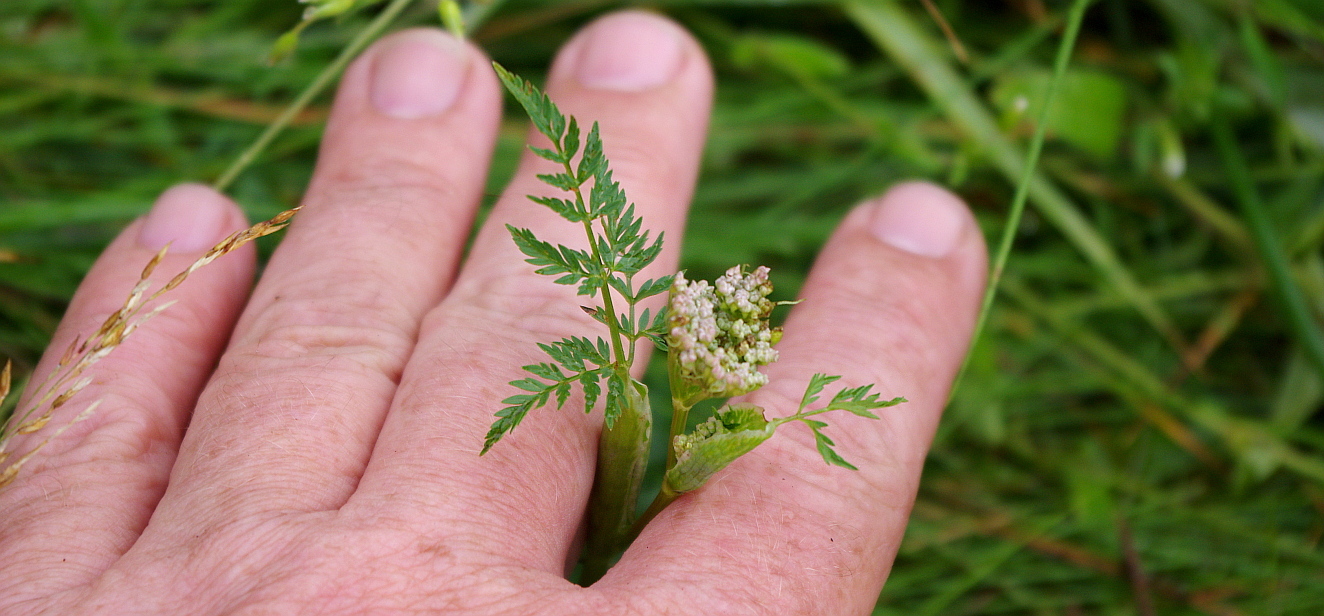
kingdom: Plantae
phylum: Tracheophyta
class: Magnoliopsida
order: Apiales
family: Apiaceae
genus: Conioselinum
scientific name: Conioselinum tataricum
